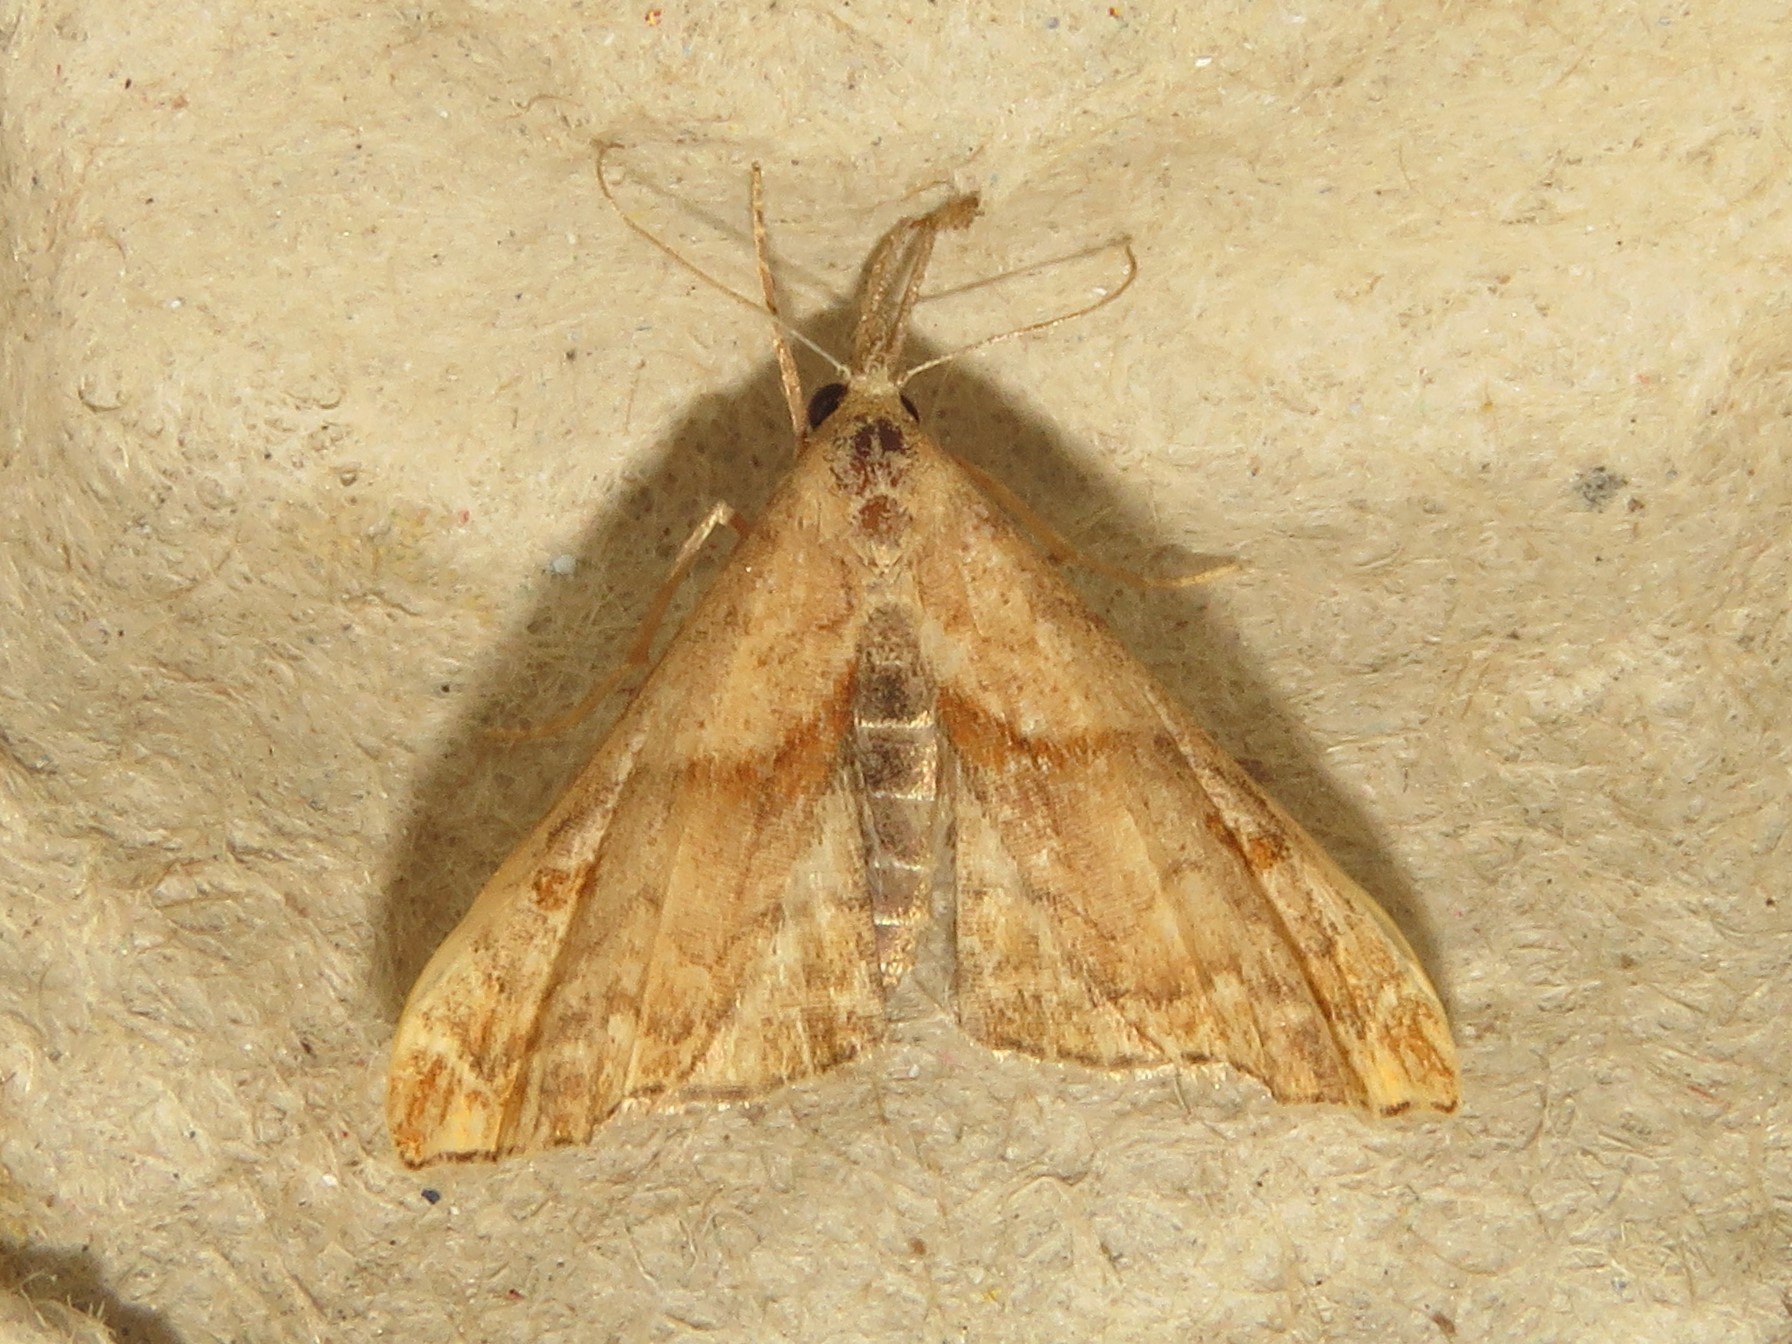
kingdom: Animalia
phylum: Arthropoda
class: Insecta
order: Lepidoptera
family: Erebidae
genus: Palthis
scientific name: Palthis angulalis
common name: Dark-spotted palthis moth
